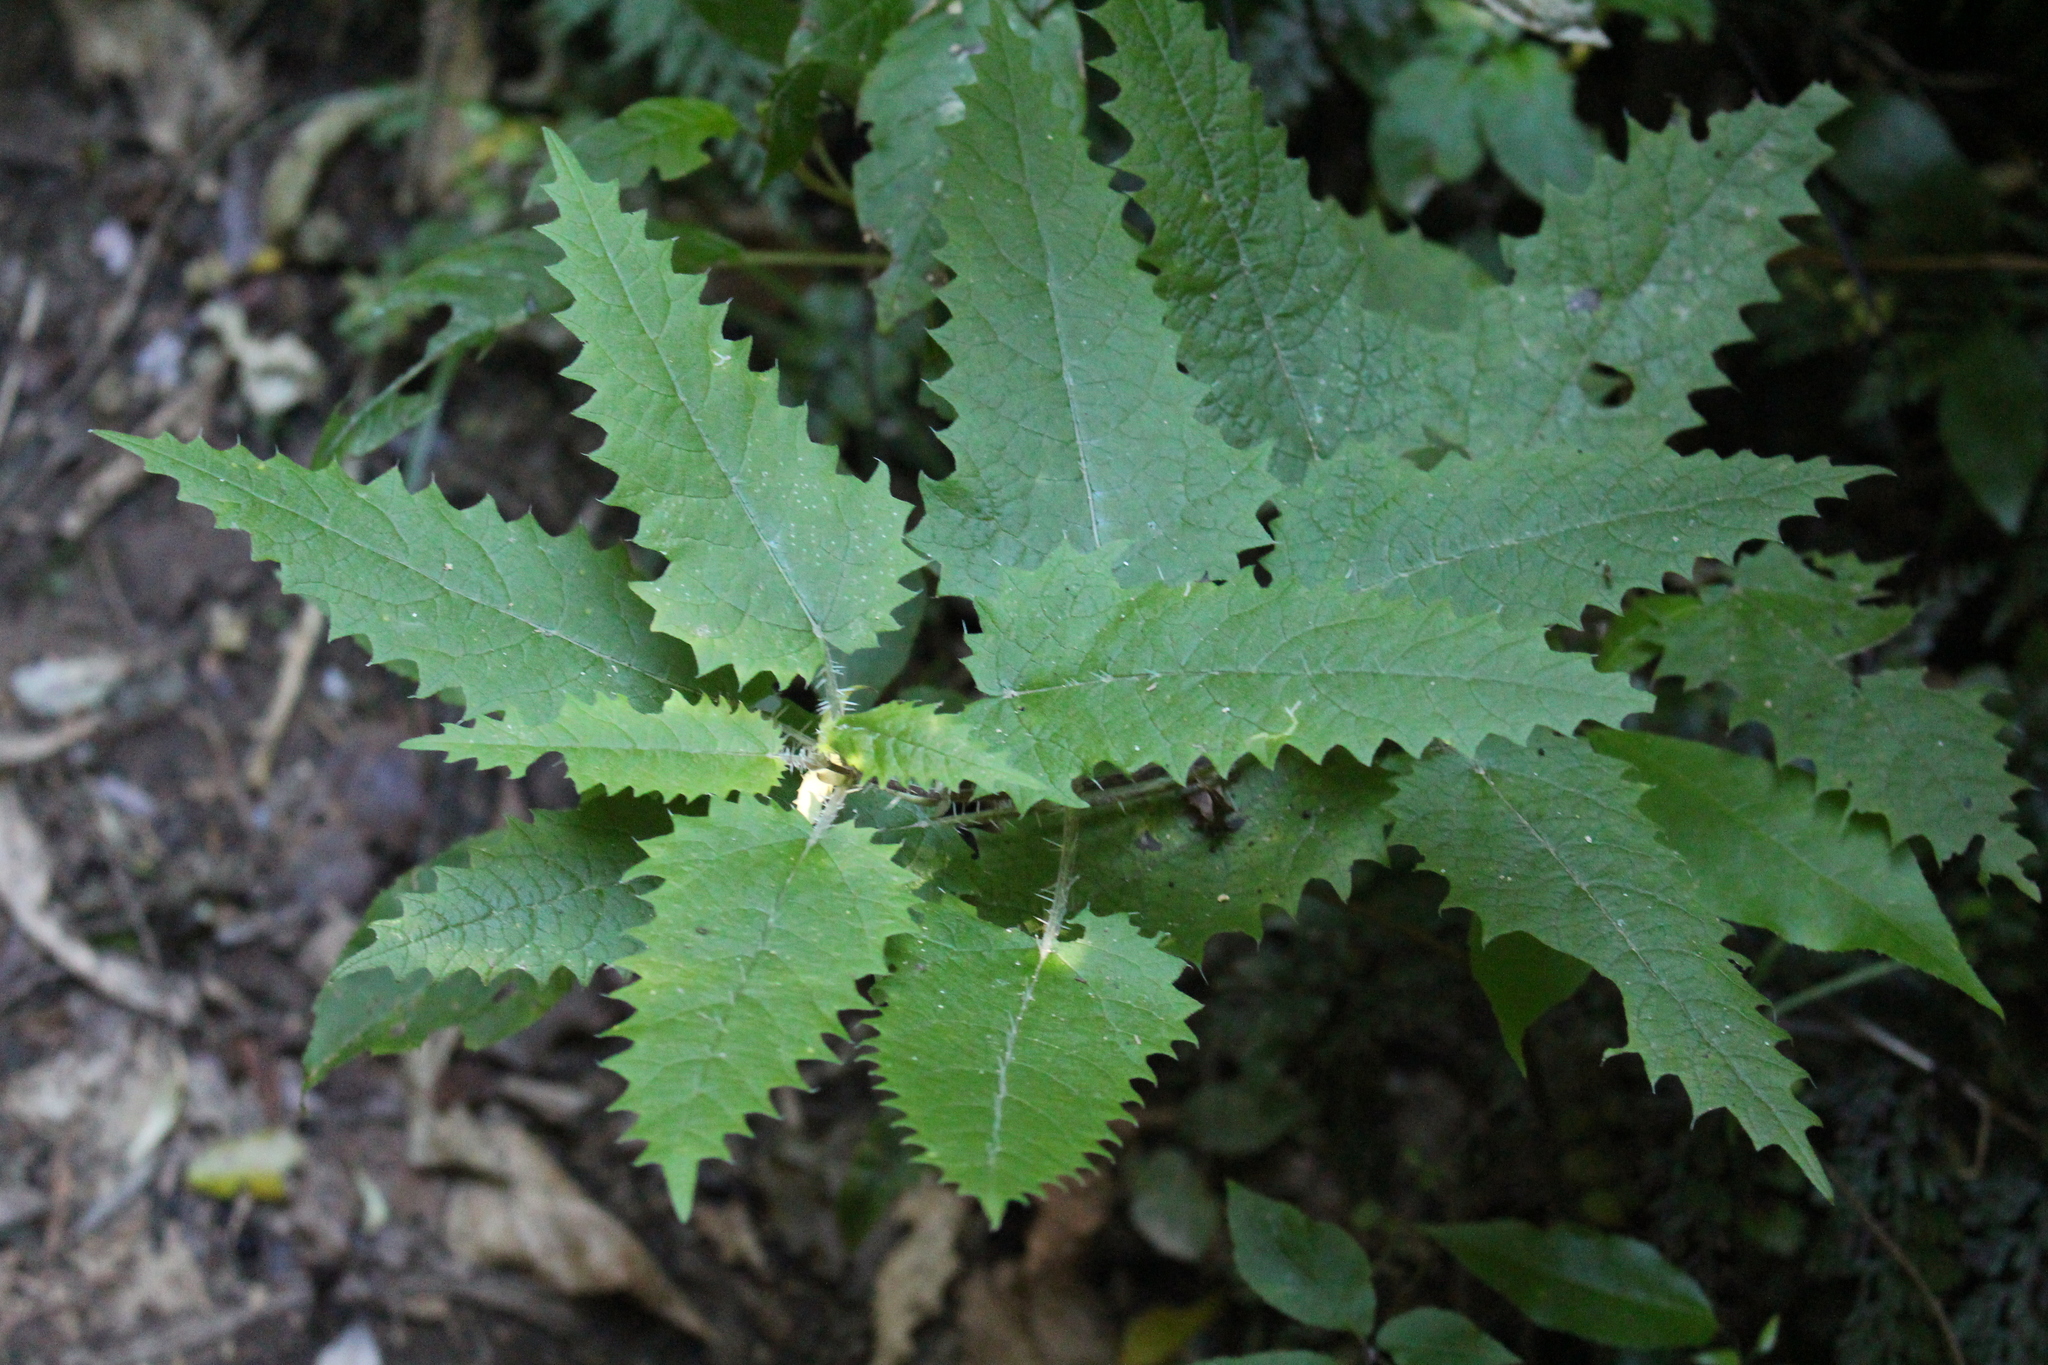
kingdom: Plantae
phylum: Tracheophyta
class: Magnoliopsida
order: Rosales
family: Urticaceae
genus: Urtica
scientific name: Urtica ferox
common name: Tree nettle
